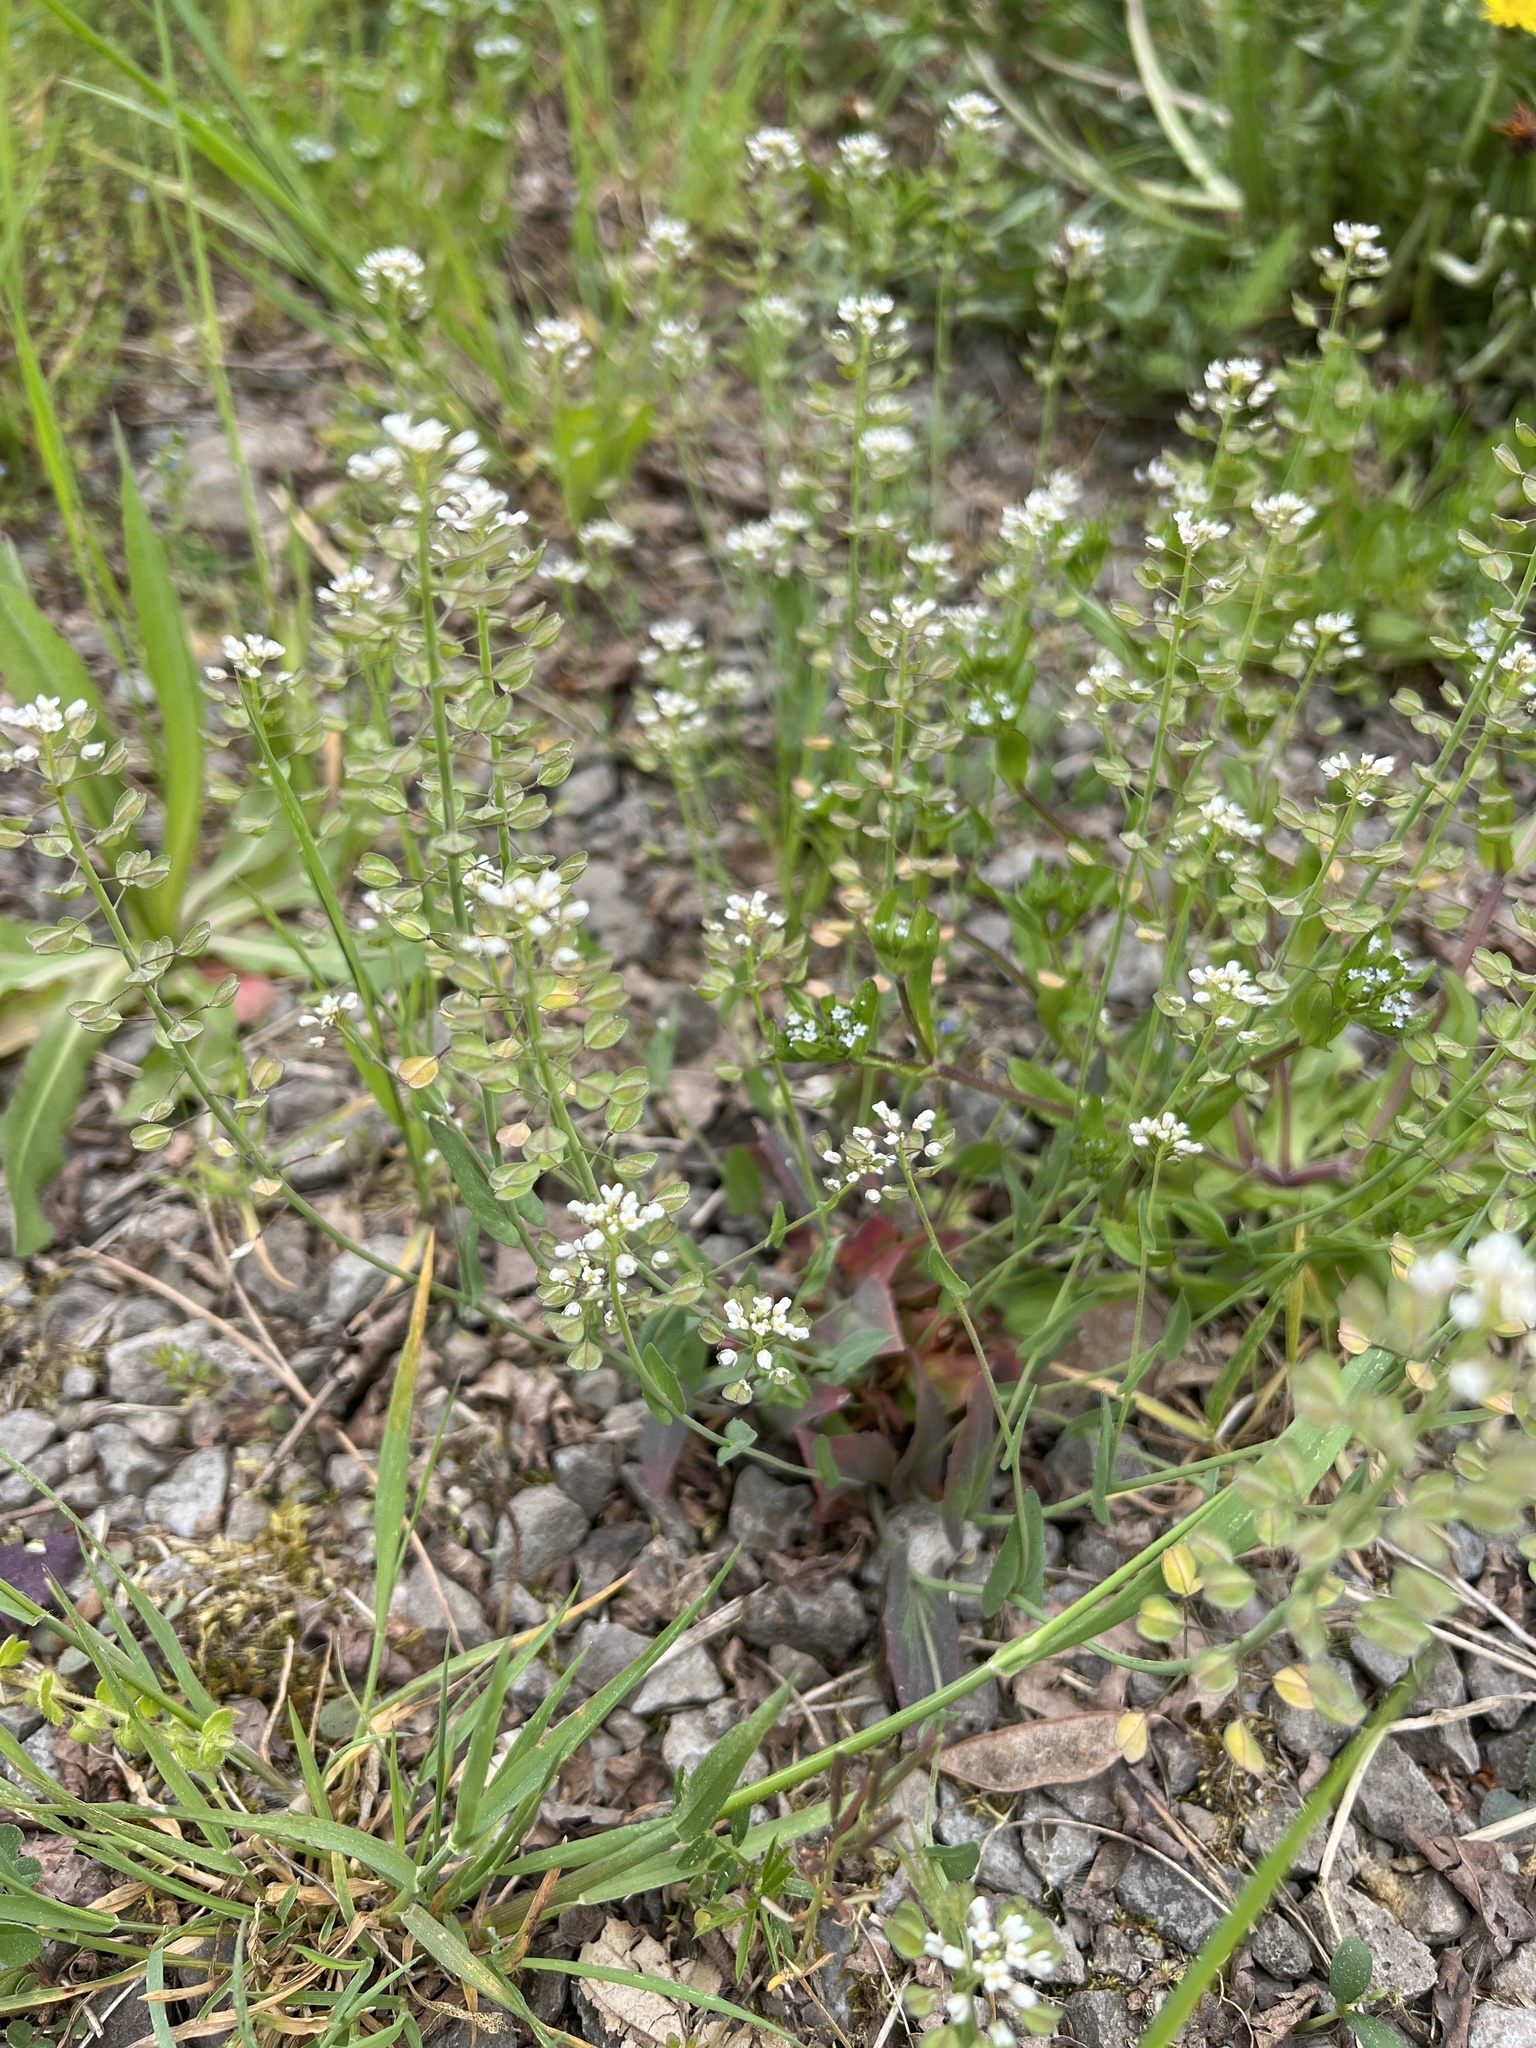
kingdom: Plantae
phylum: Tracheophyta
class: Magnoliopsida
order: Brassicales
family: Brassicaceae
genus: Noccaea
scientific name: Noccaea perfoliata
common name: Perfoliate pennycress
